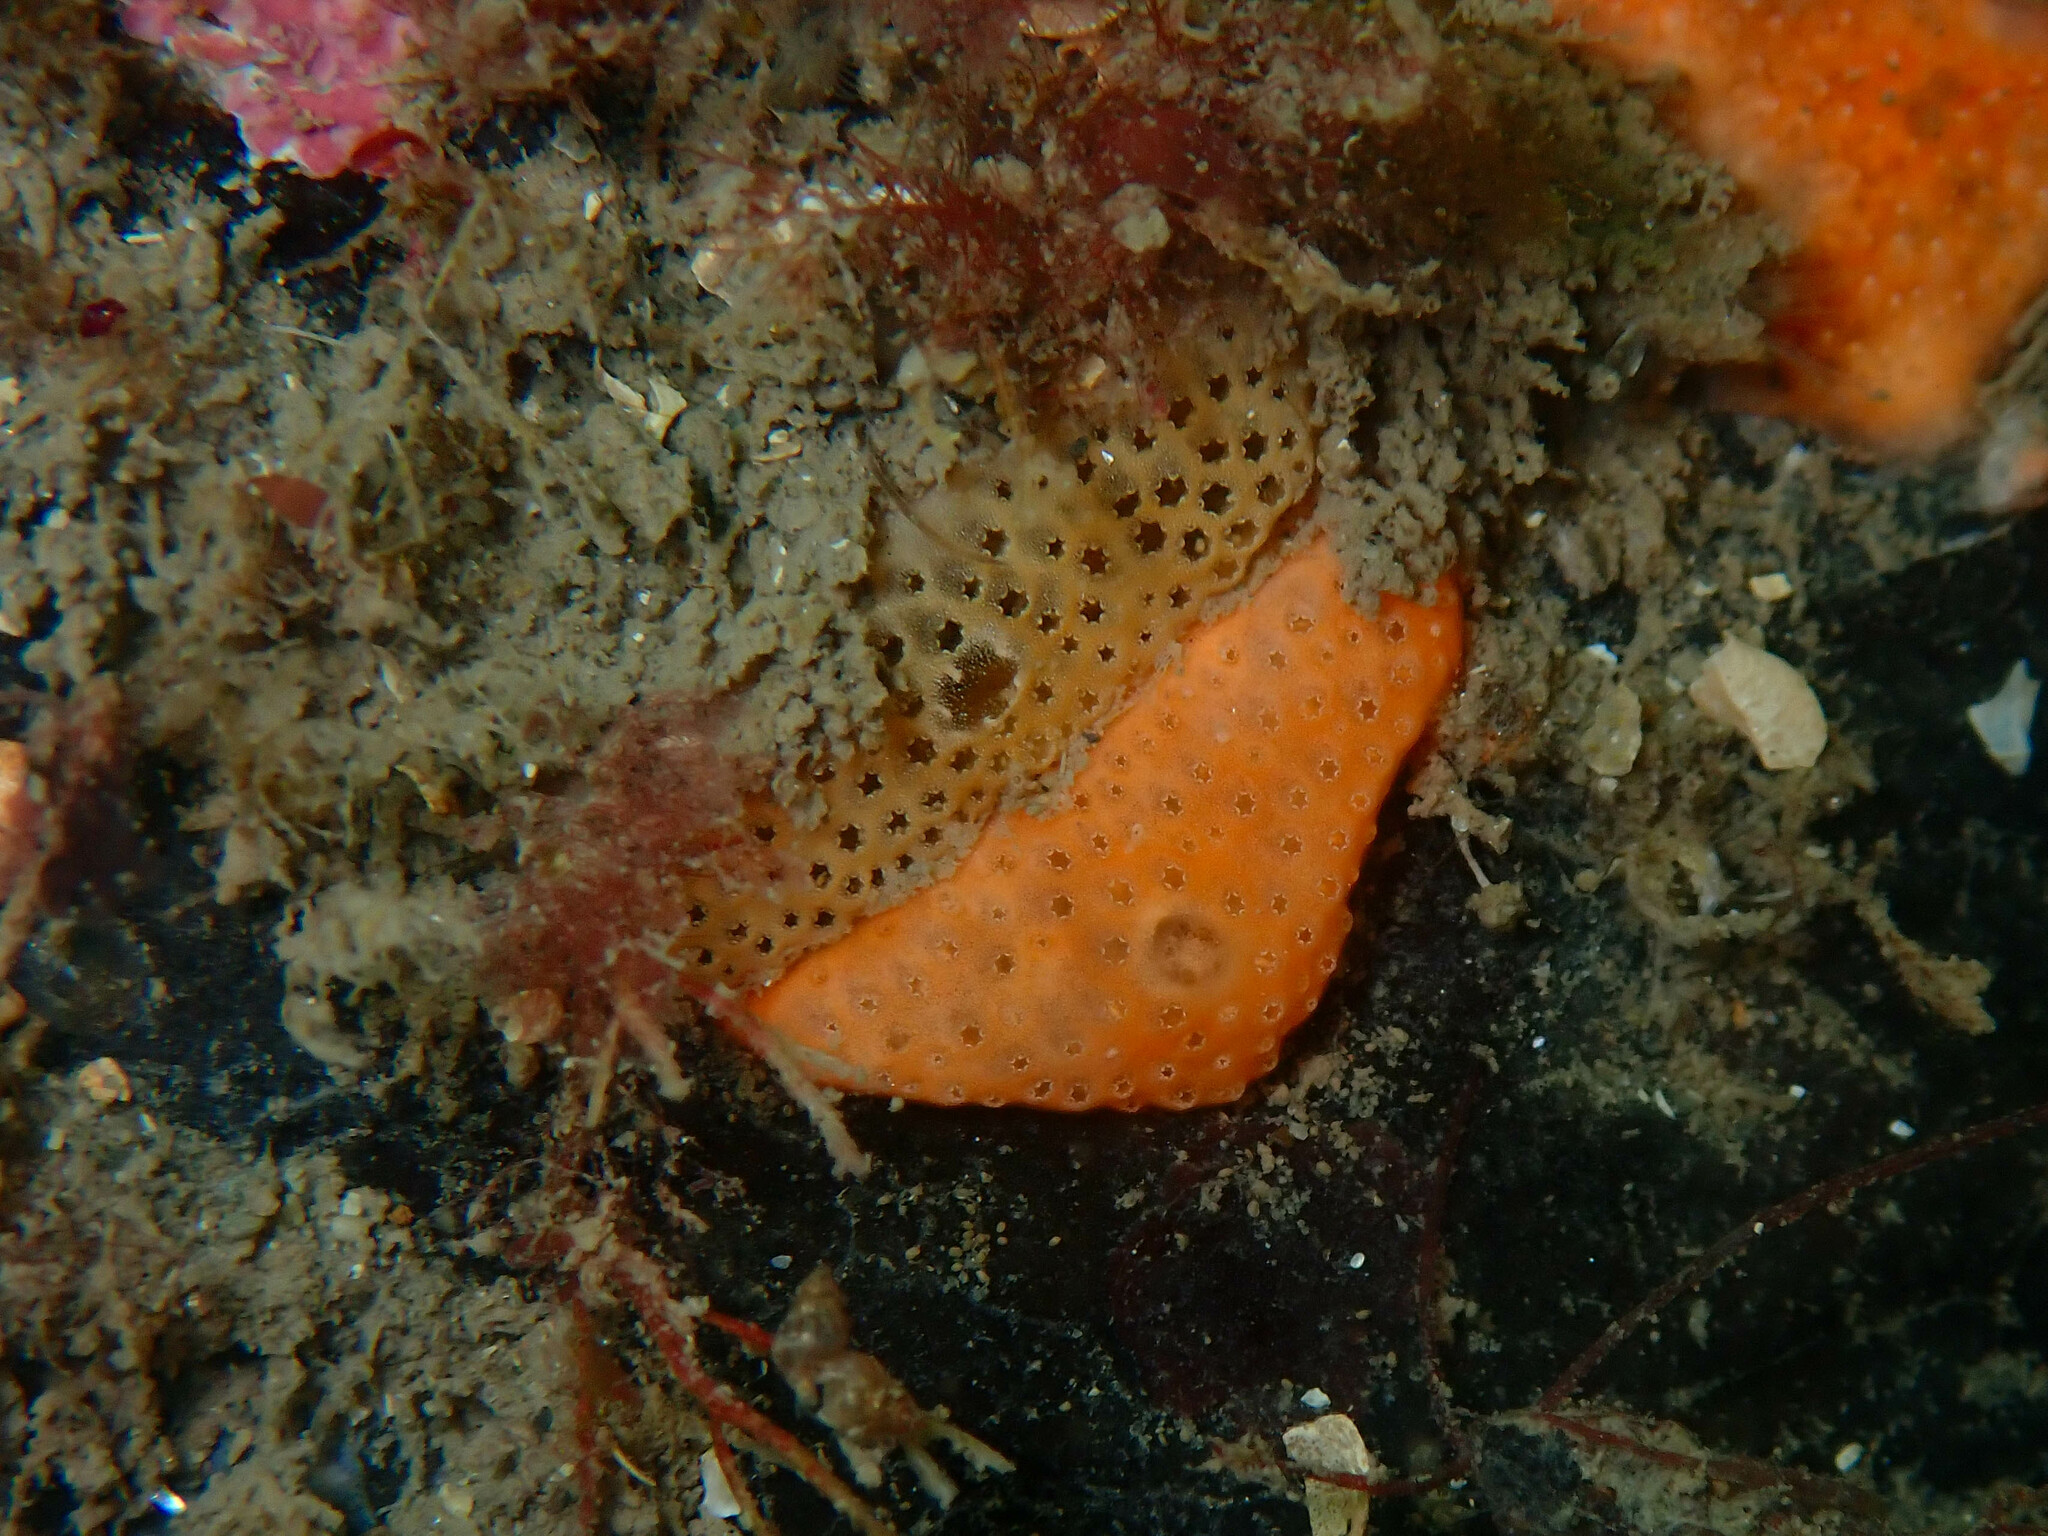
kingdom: Animalia
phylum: Chordata
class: Ascidiacea
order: Aplousobranchia
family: Didemnidae
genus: Didemnum
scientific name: Didemnum pseudofulgens
